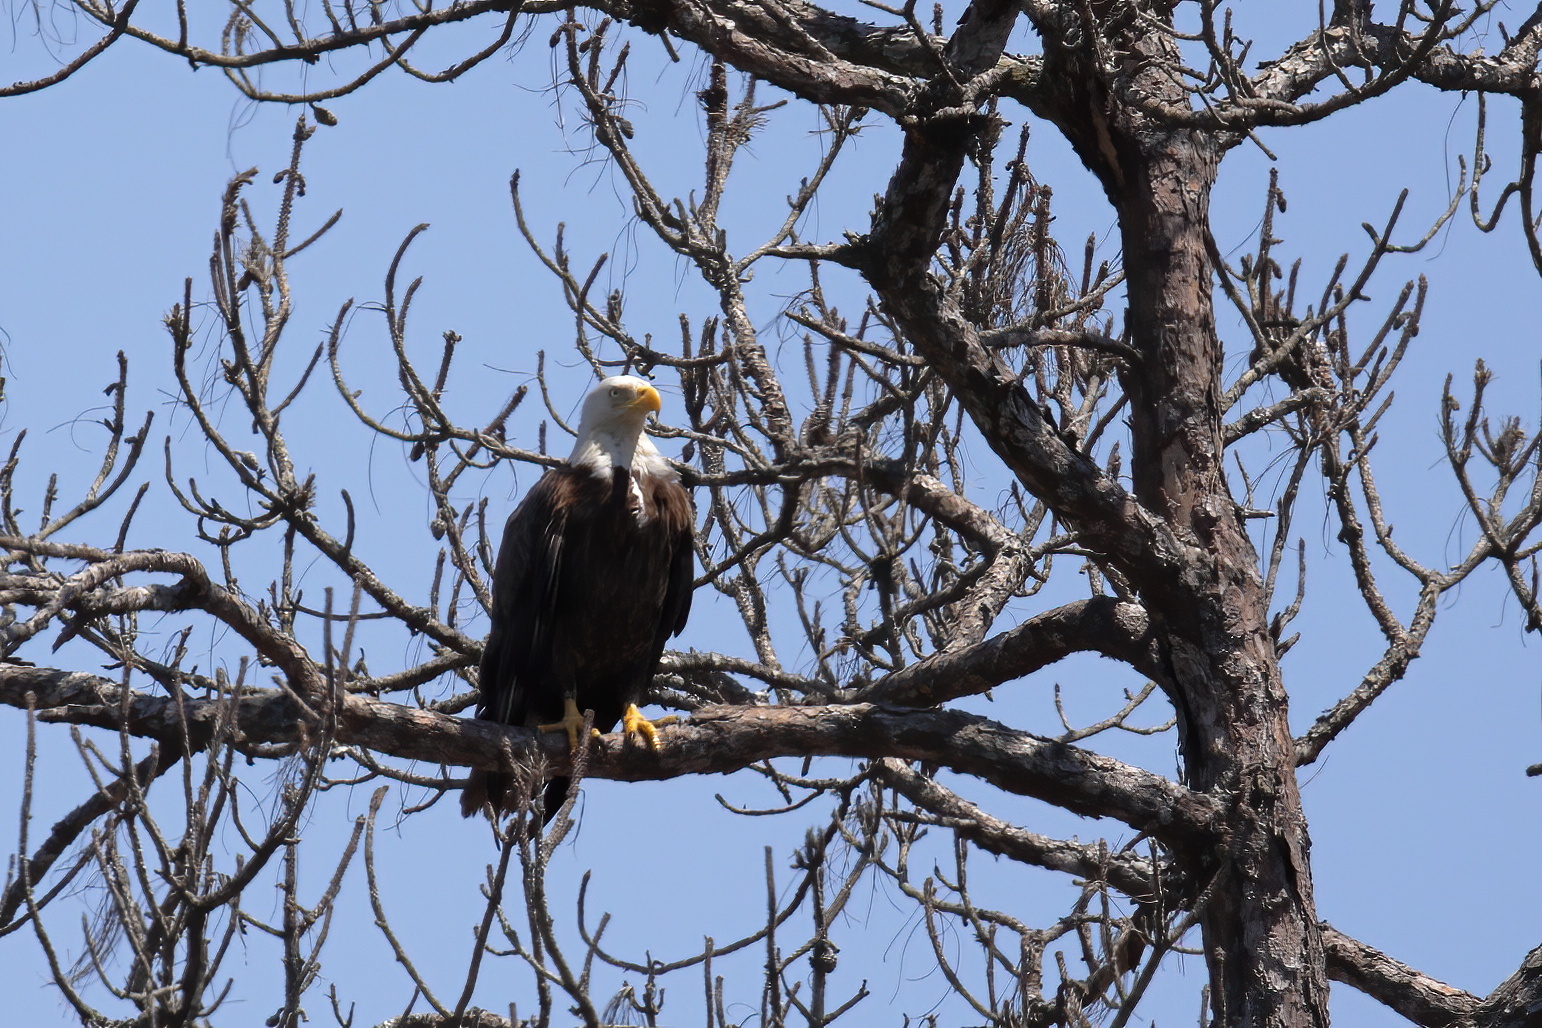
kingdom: Animalia
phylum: Chordata
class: Aves
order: Accipitriformes
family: Accipitridae
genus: Haliaeetus
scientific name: Haliaeetus leucocephalus
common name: Bald eagle
